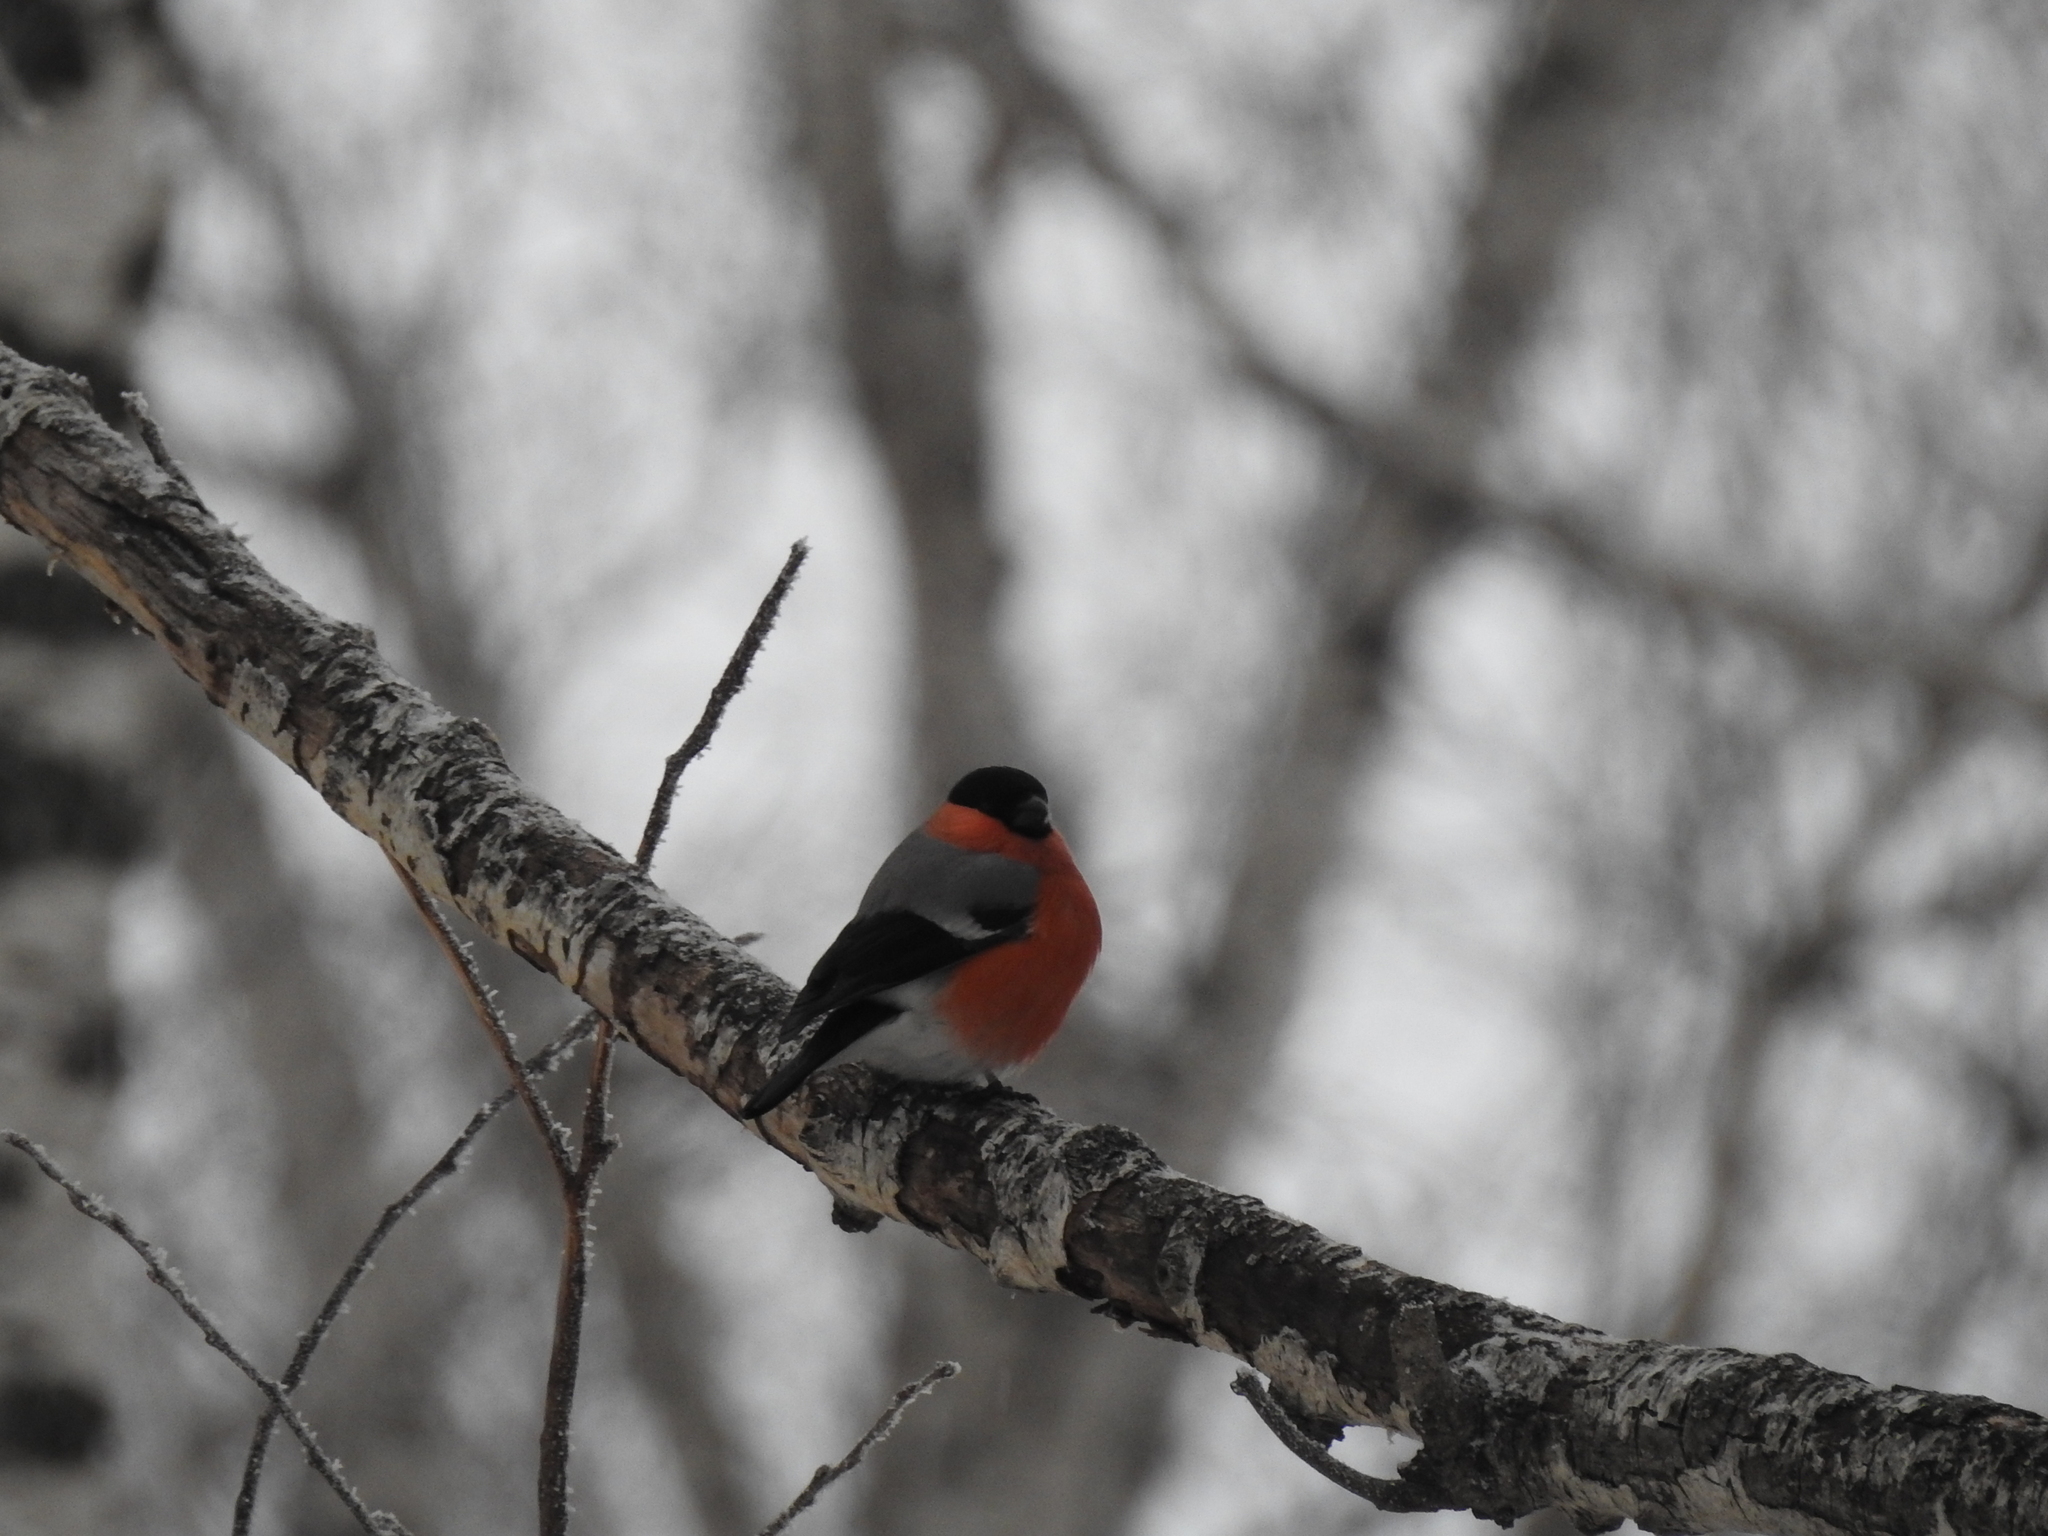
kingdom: Animalia
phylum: Chordata
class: Aves
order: Passeriformes
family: Fringillidae
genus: Pyrrhula
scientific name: Pyrrhula pyrrhula
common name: Eurasian bullfinch
